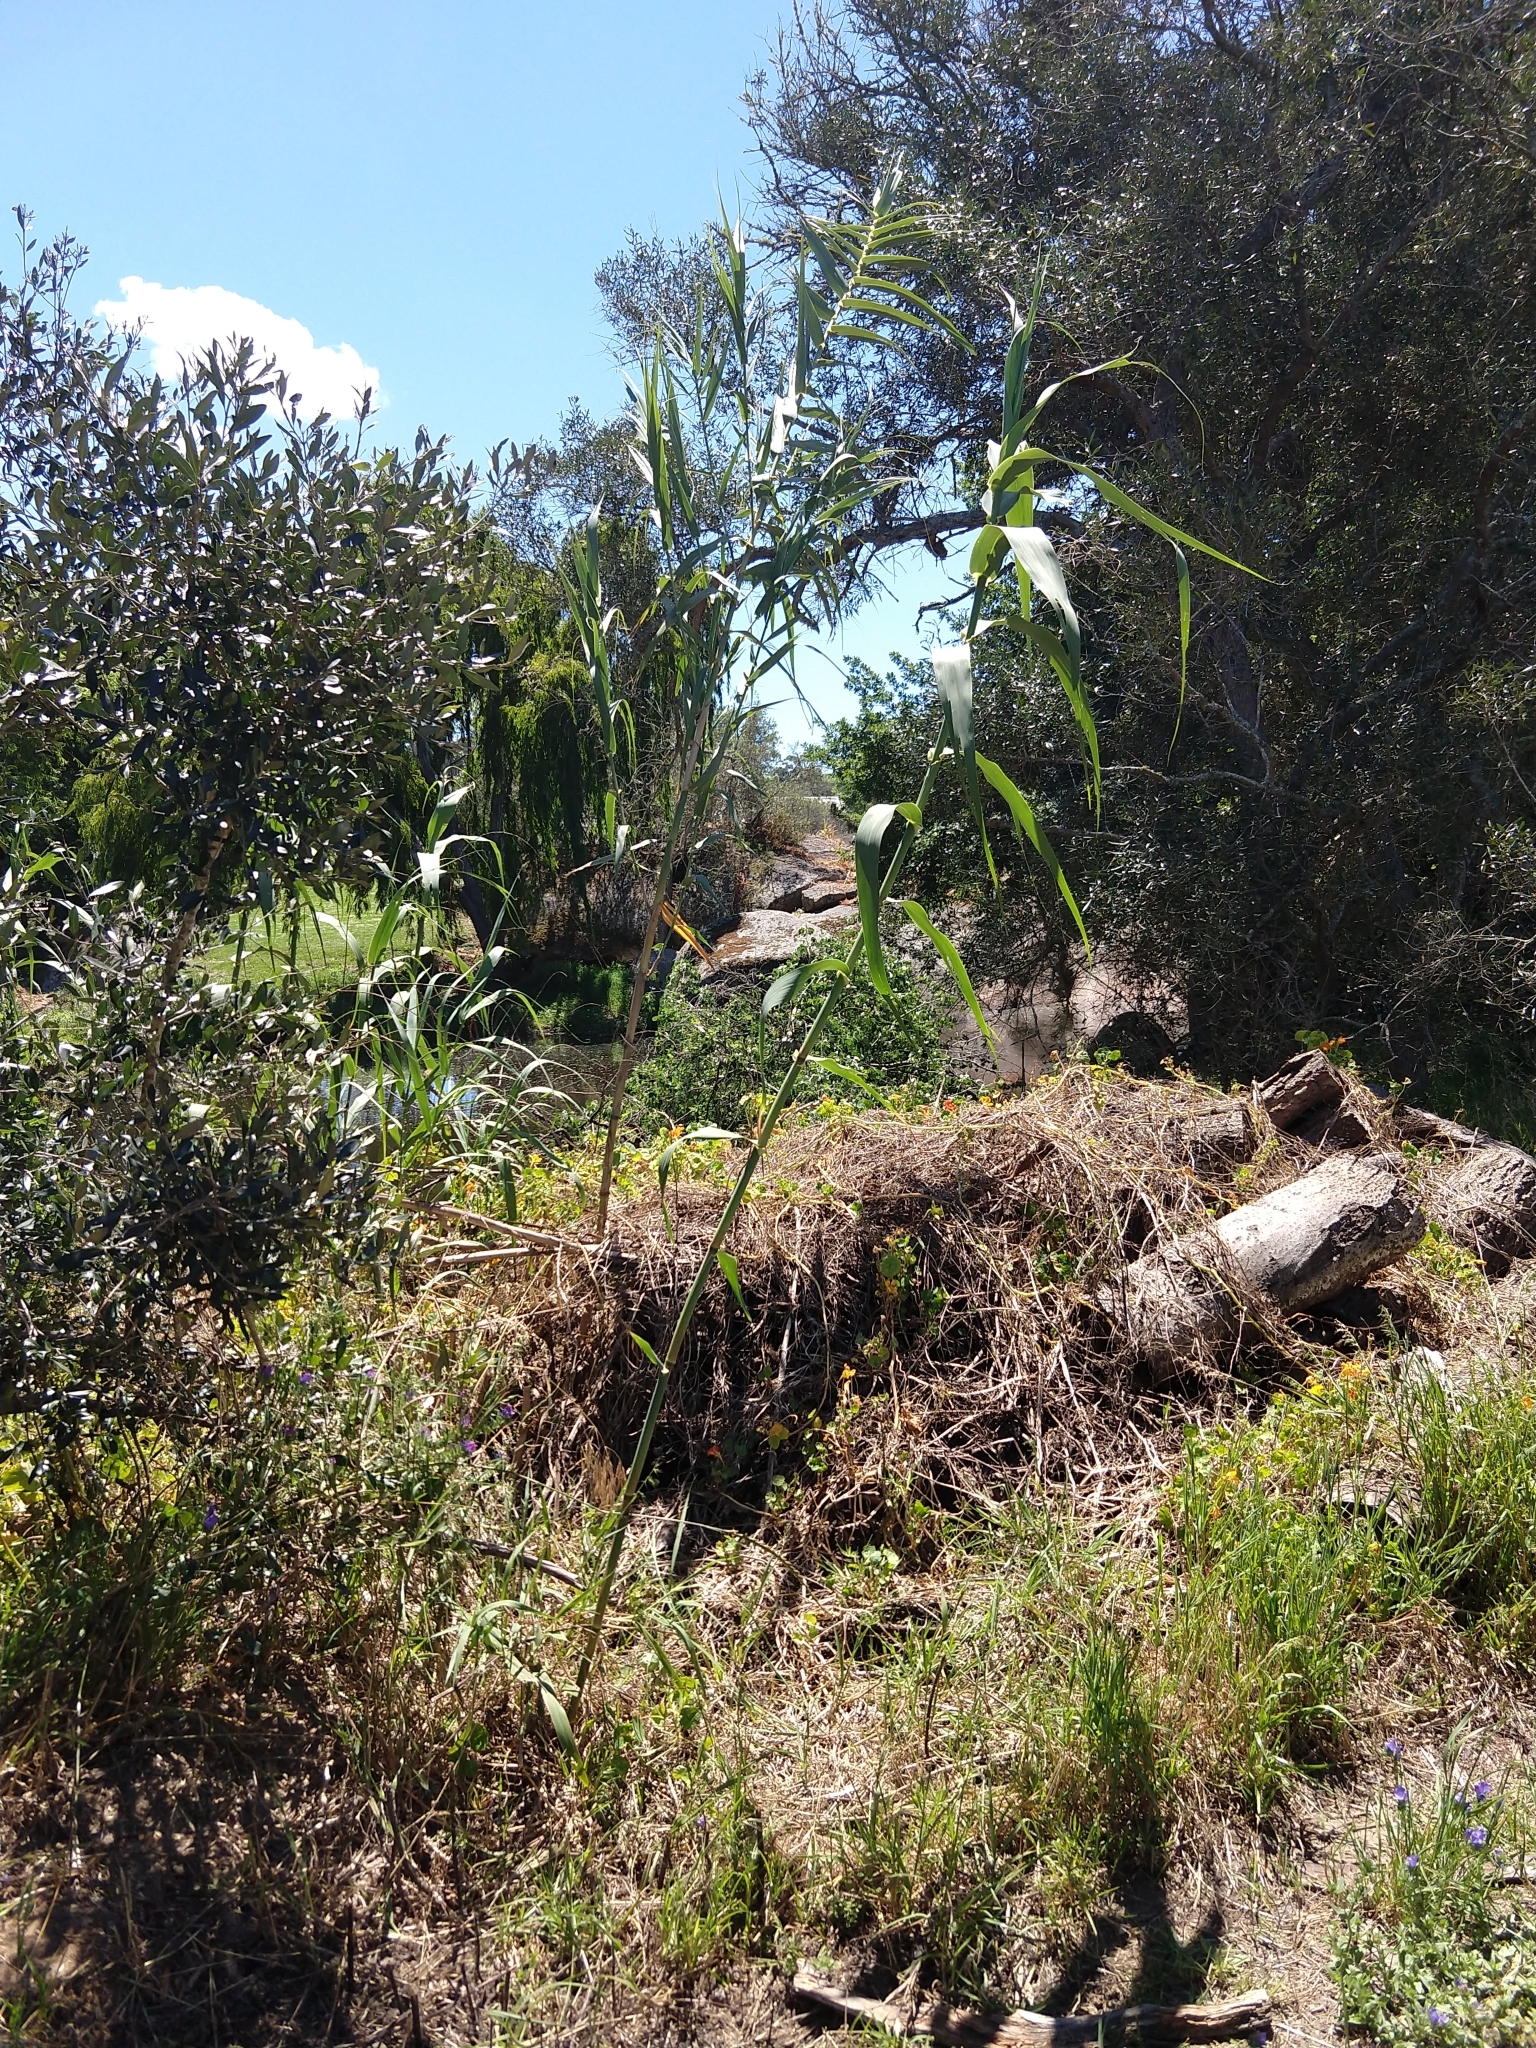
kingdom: Plantae
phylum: Tracheophyta
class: Liliopsida
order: Poales
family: Poaceae
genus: Arundo
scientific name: Arundo donax
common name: Giant reed
